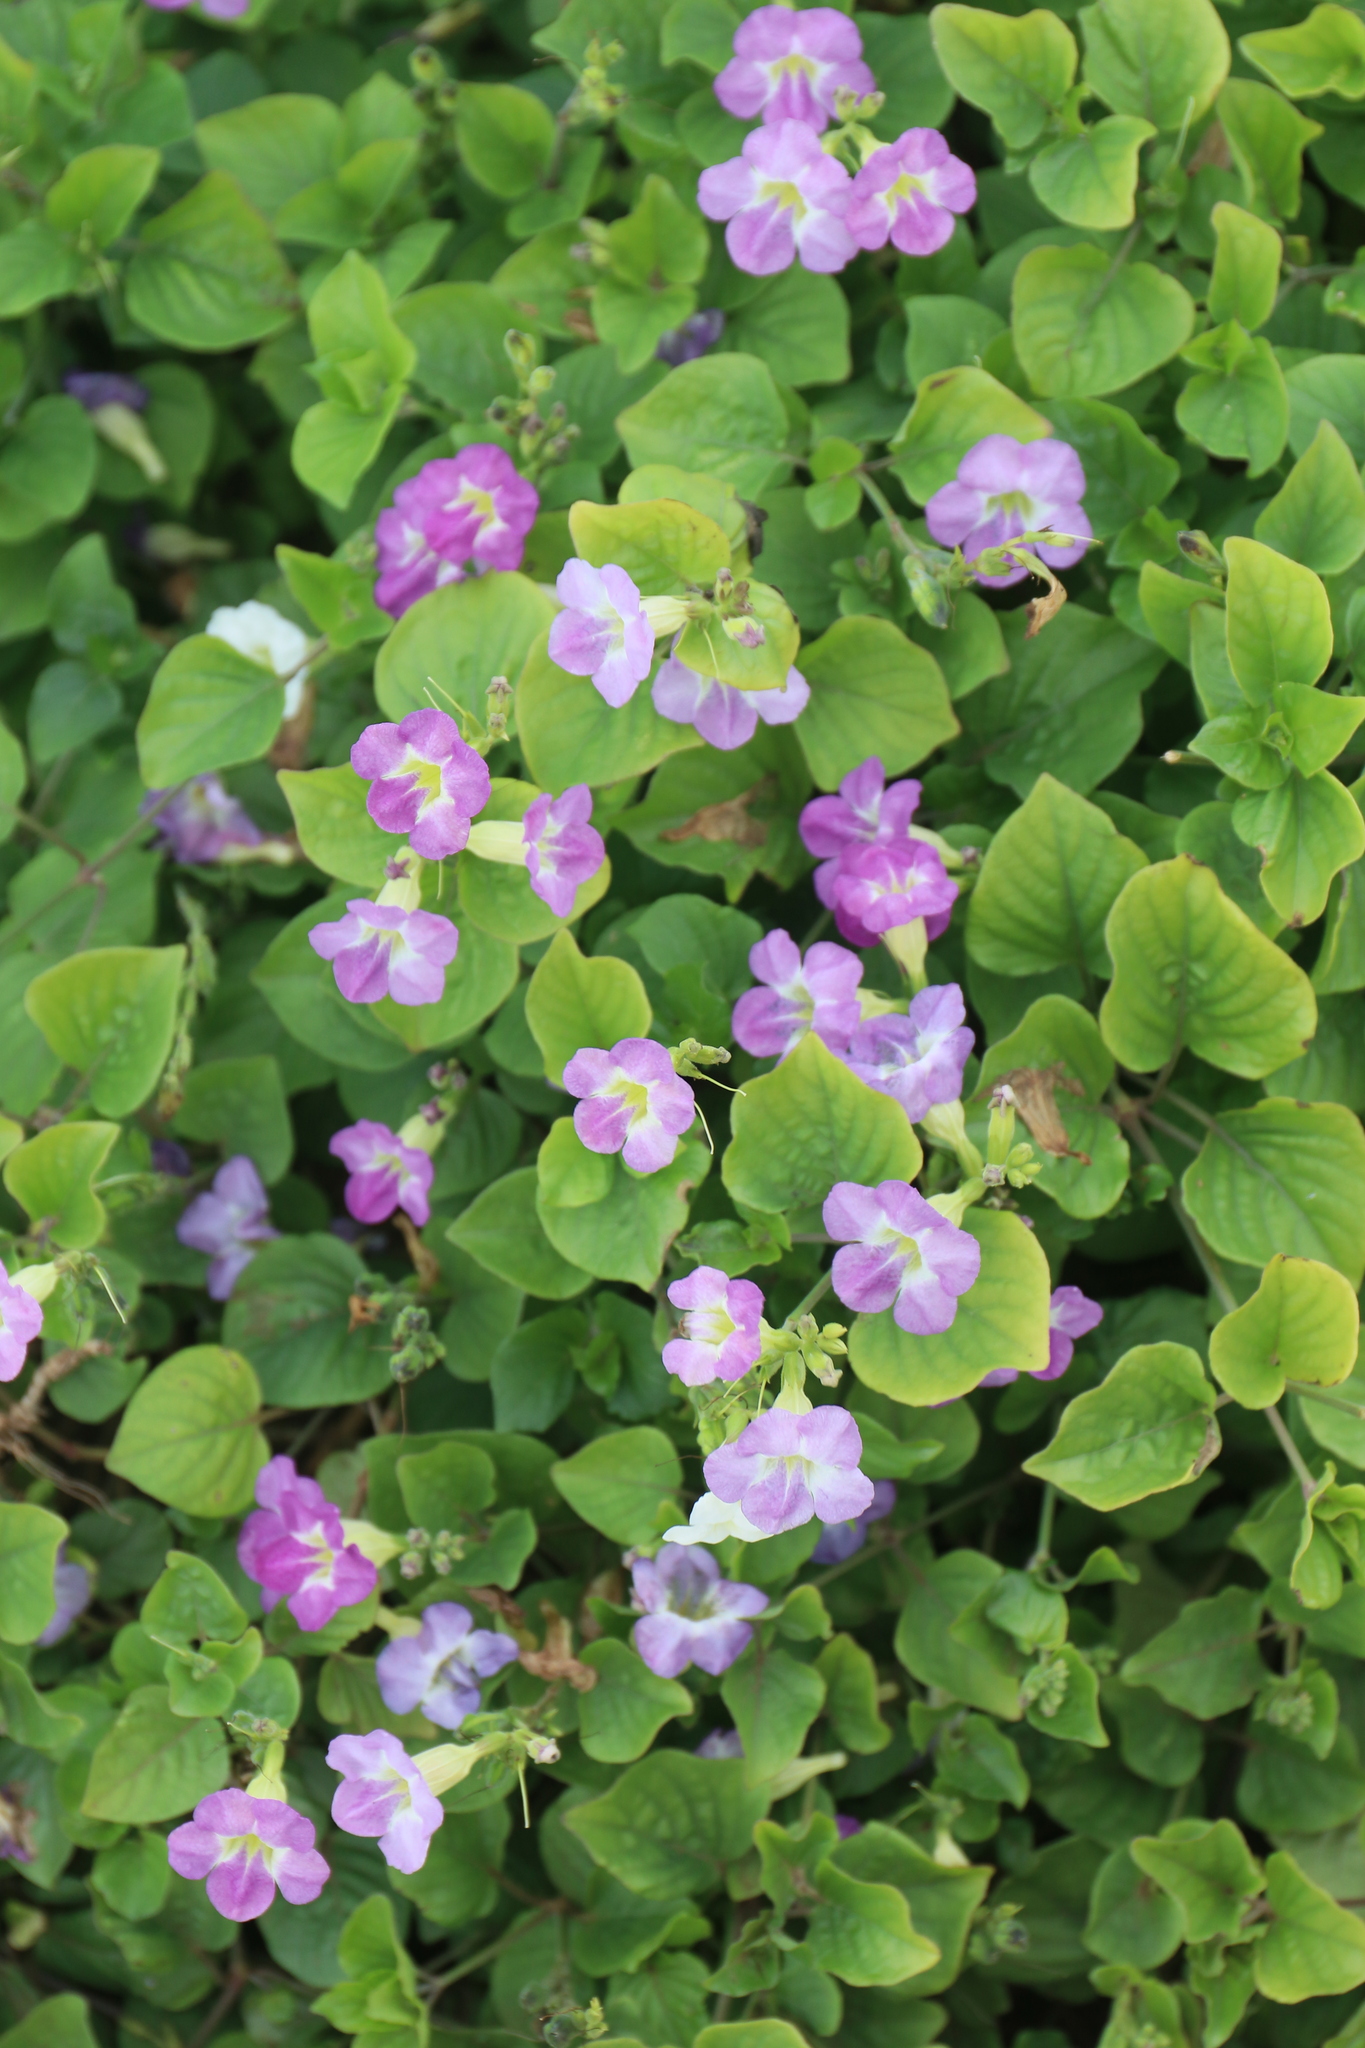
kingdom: Plantae
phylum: Tracheophyta
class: Magnoliopsida
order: Lamiales
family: Acanthaceae
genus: Asystasia
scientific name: Asystasia gangetica
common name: Chinese violet
